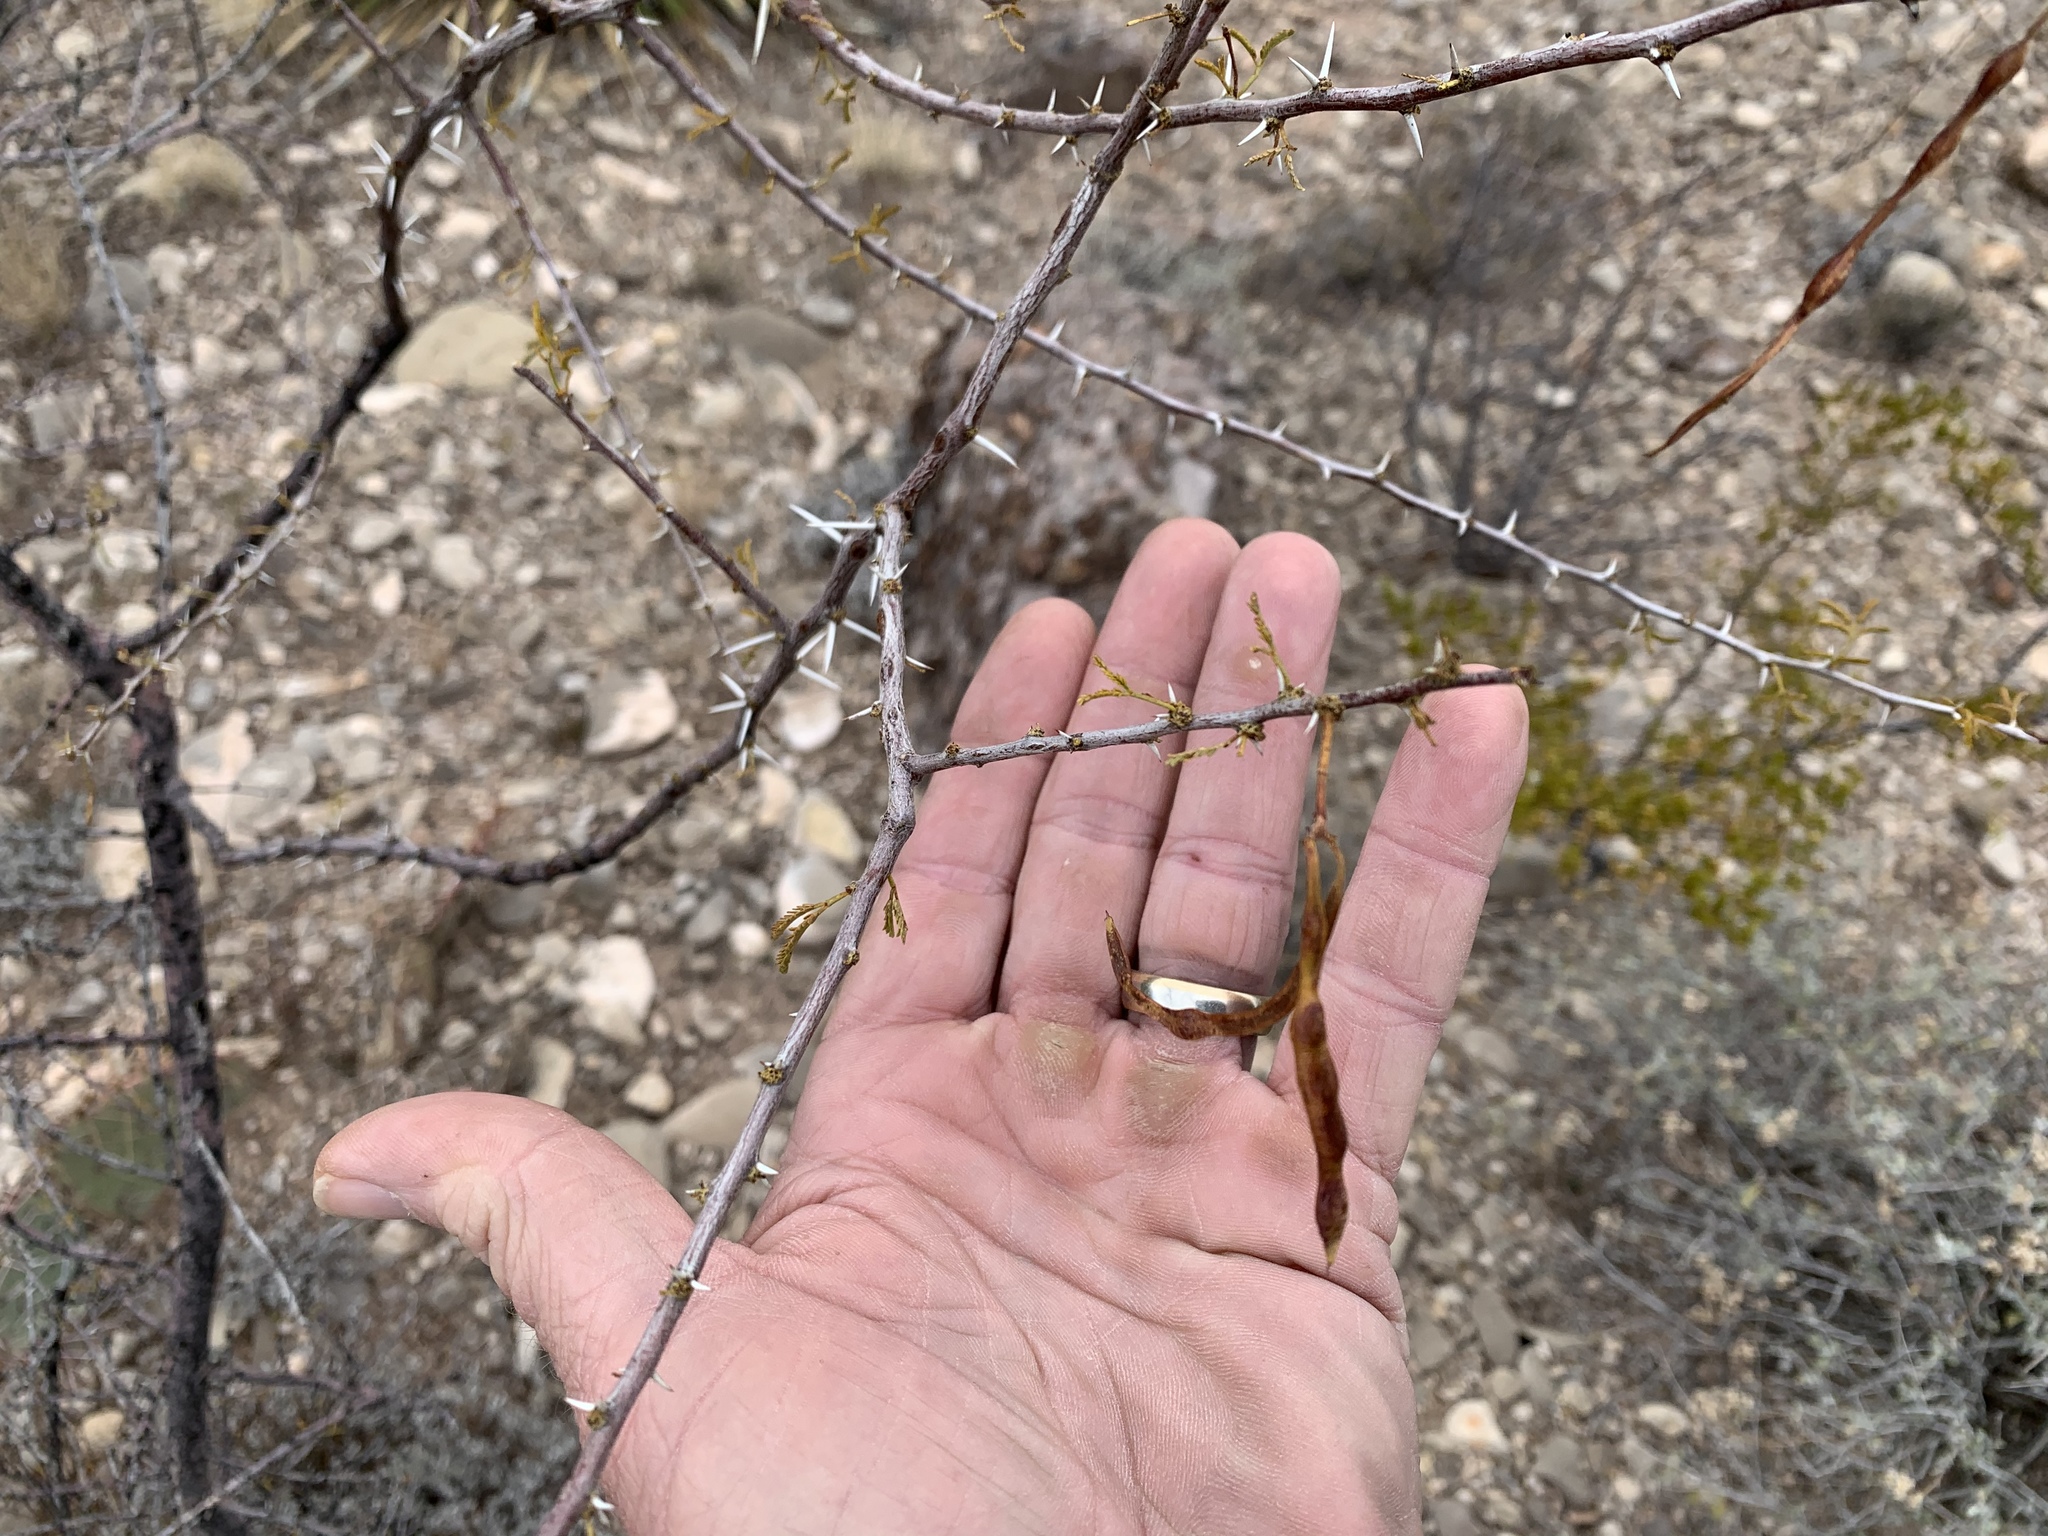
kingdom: Plantae
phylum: Tracheophyta
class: Magnoliopsida
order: Fabales
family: Fabaceae
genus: Vachellia
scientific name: Vachellia constricta
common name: Mescat acacia
